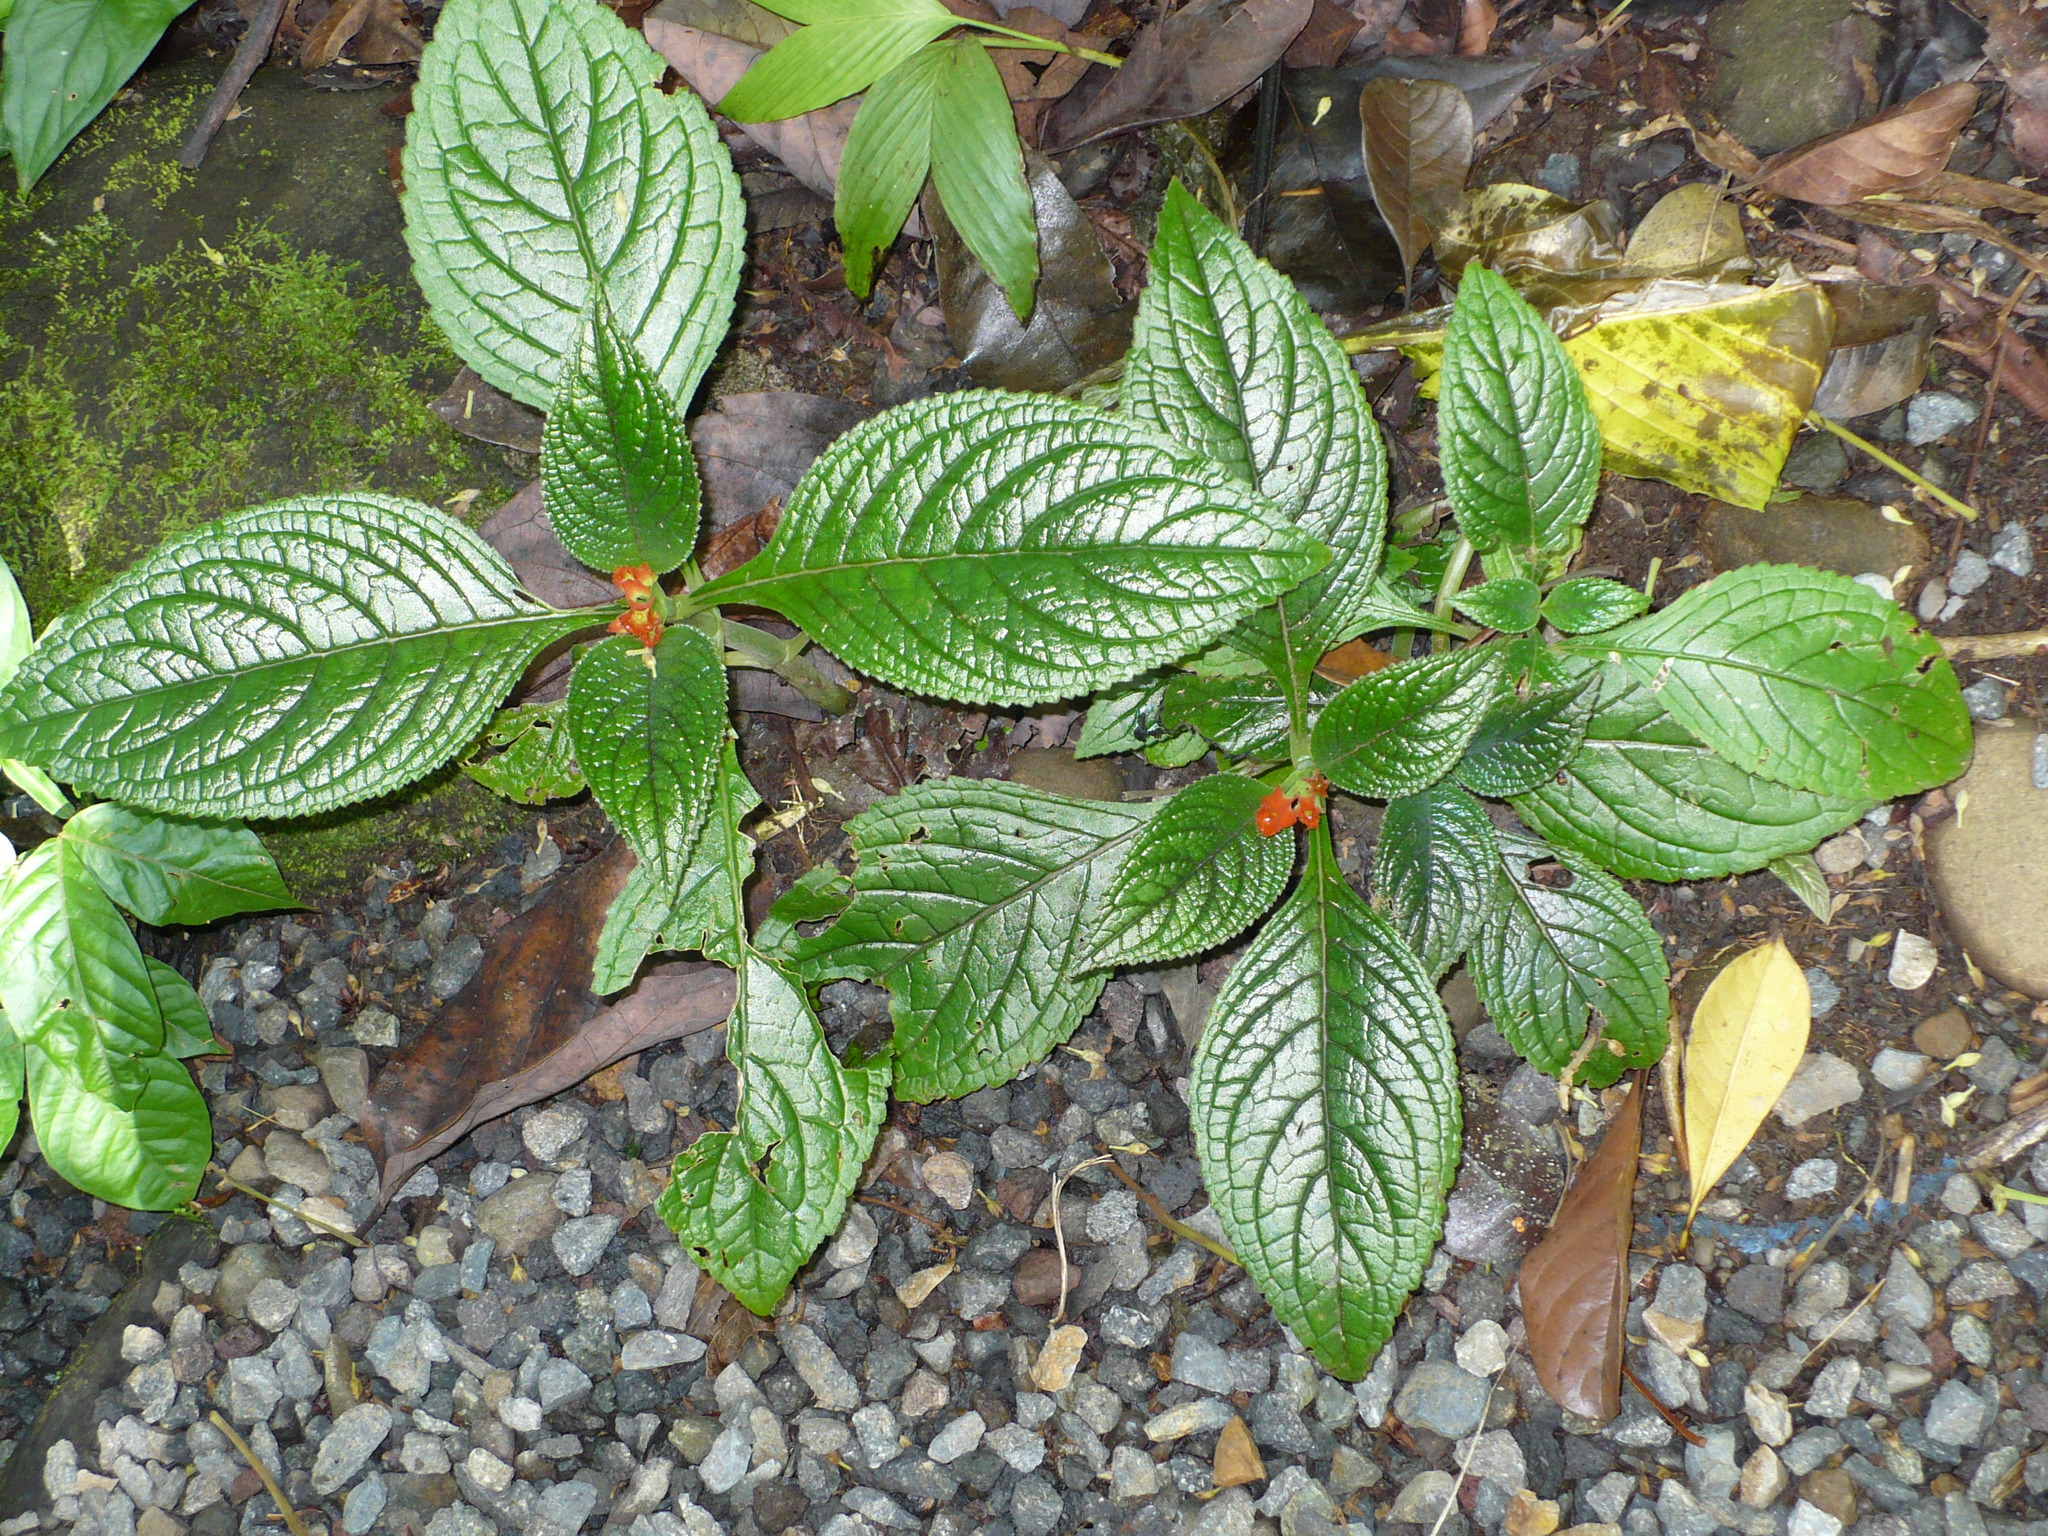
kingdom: Plantae
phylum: Tracheophyta
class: Magnoliopsida
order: Lamiales
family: Gesneriaceae
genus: Chrysothemis
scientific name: Chrysothemis pulchella
